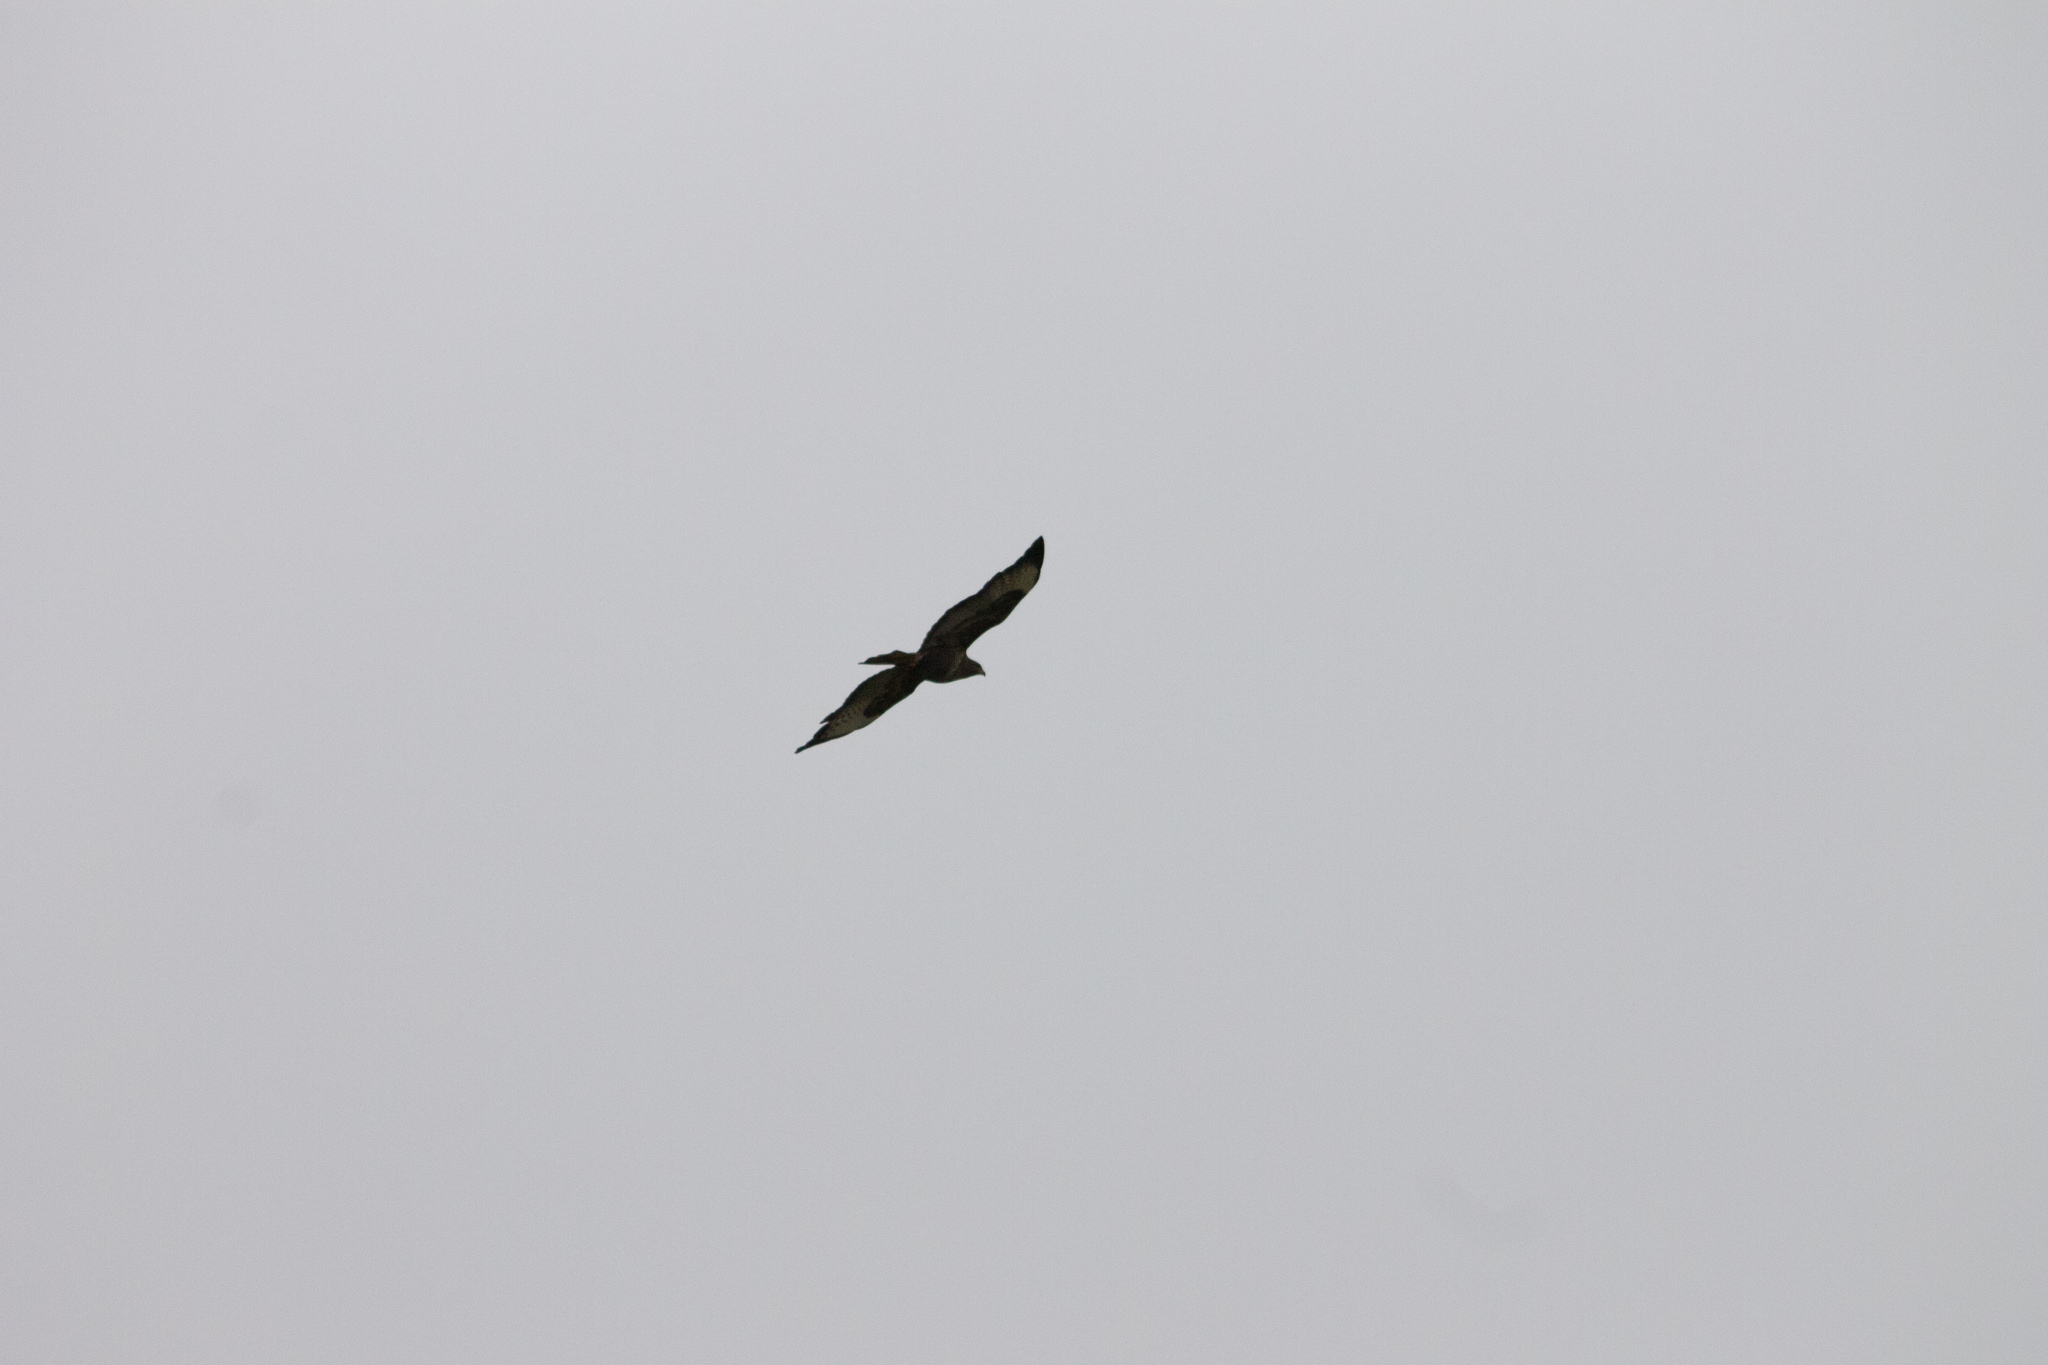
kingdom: Animalia
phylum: Chordata
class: Aves
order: Accipitriformes
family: Accipitridae
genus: Buteo
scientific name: Buteo buteo
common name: Common buzzard
